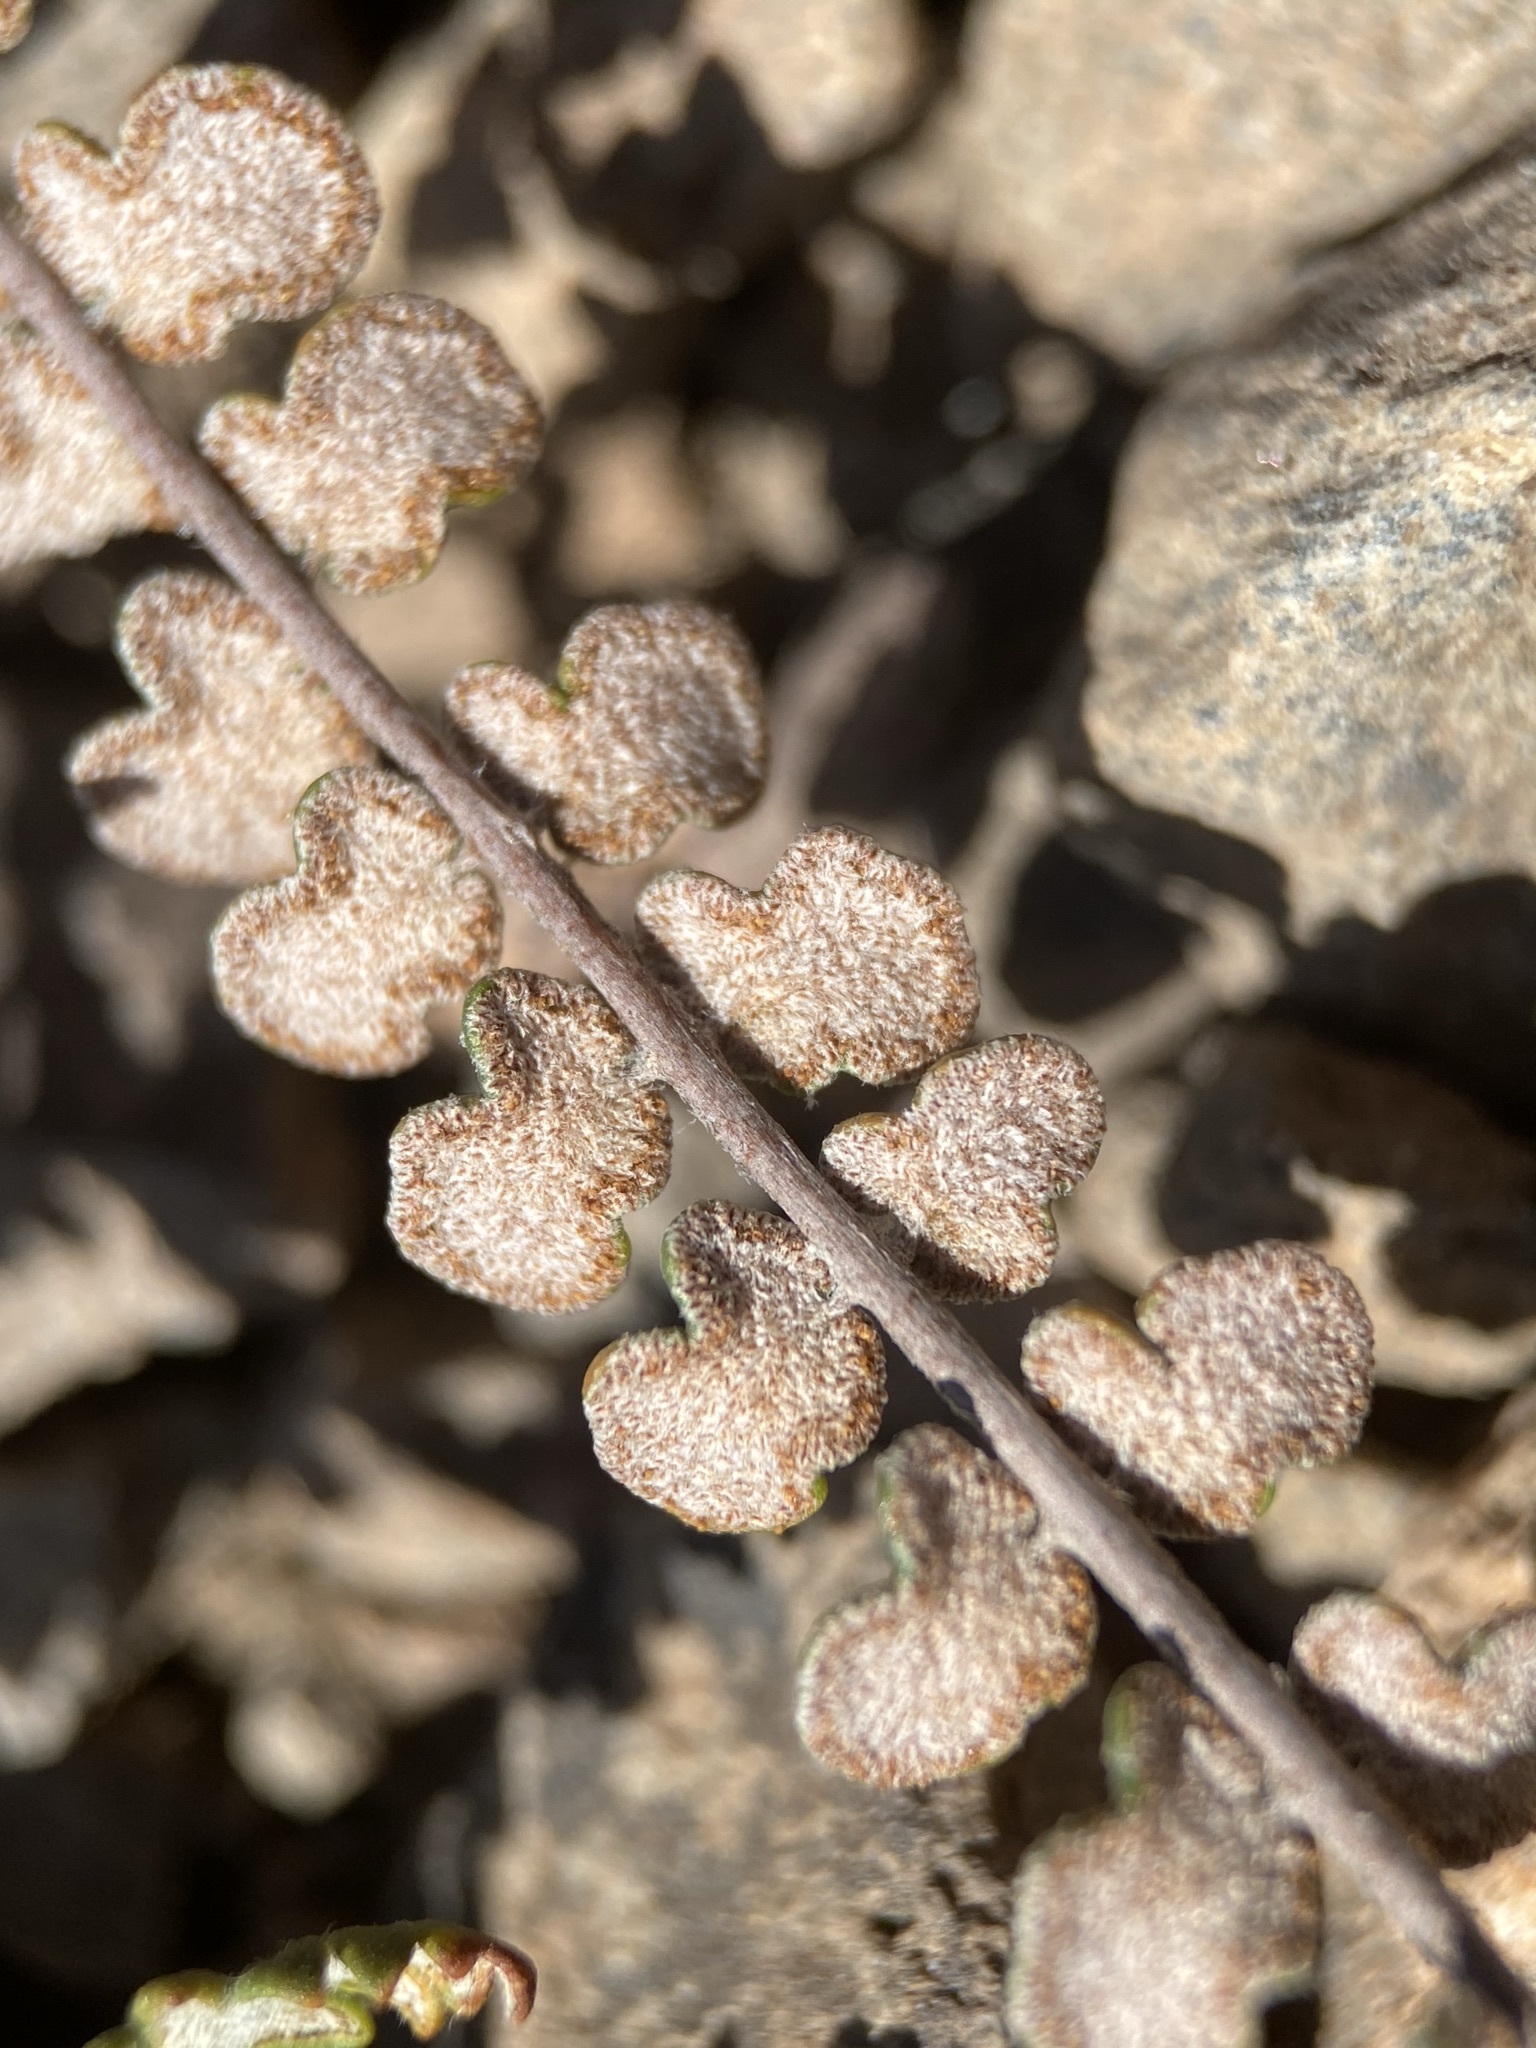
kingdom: Plantae
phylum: Tracheophyta
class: Polypodiopsida
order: Polypodiales
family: Pteridaceae
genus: Astrolepis
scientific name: Astrolepis cochisensis
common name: Scaly cloak fern
